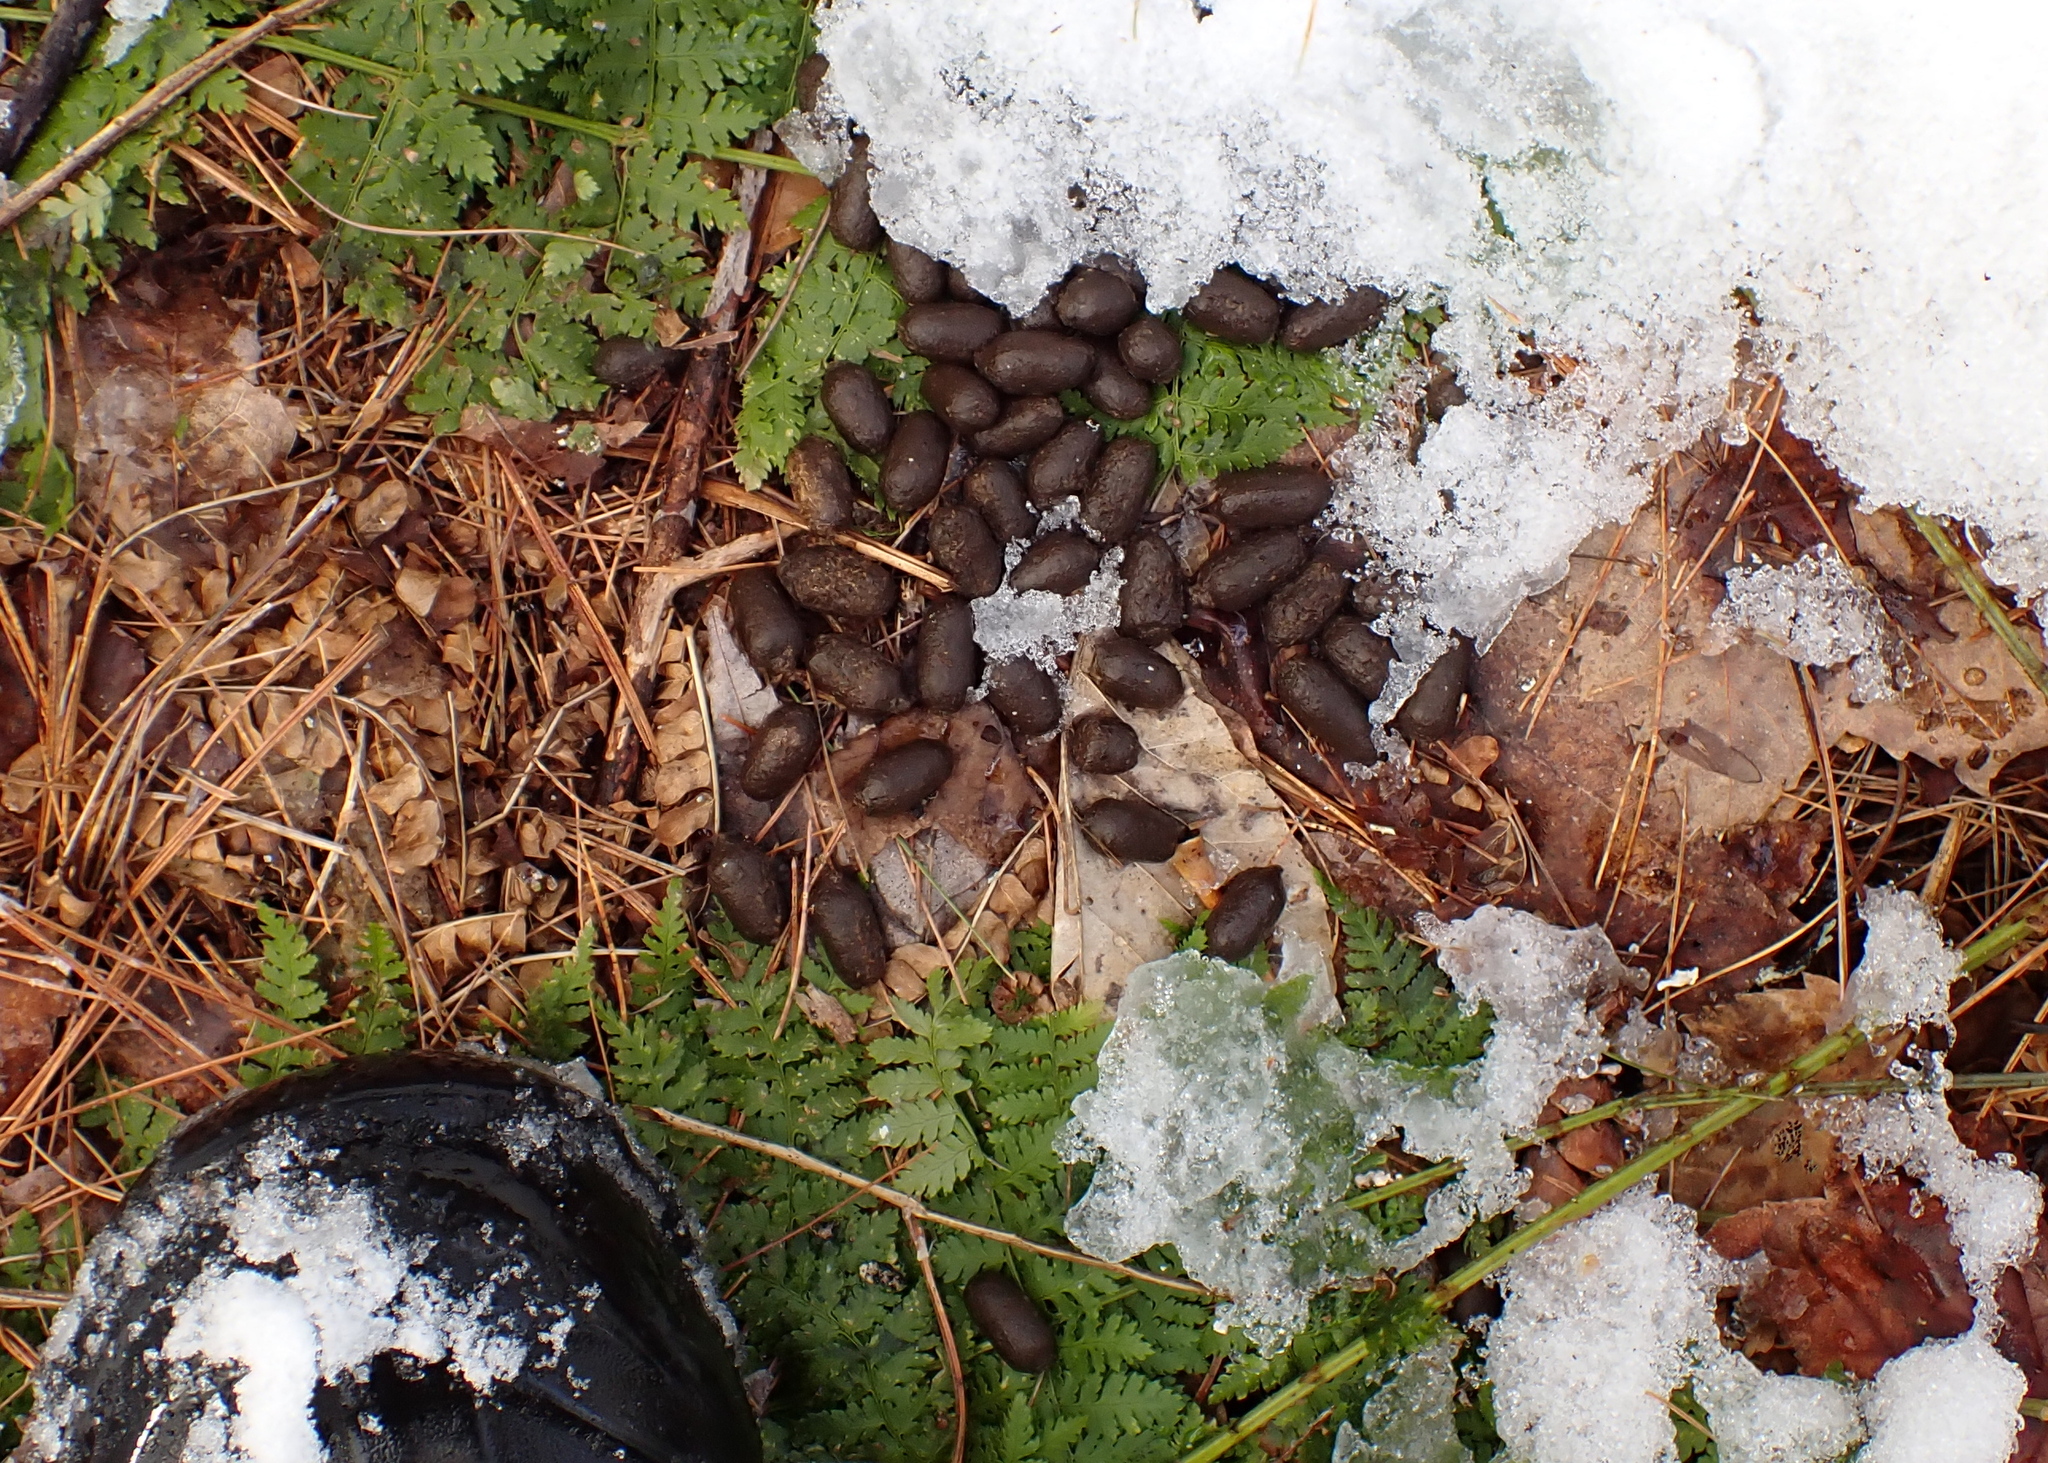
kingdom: Animalia
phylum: Chordata
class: Mammalia
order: Artiodactyla
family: Cervidae
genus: Odocoileus
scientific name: Odocoileus virginianus
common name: White-tailed deer
